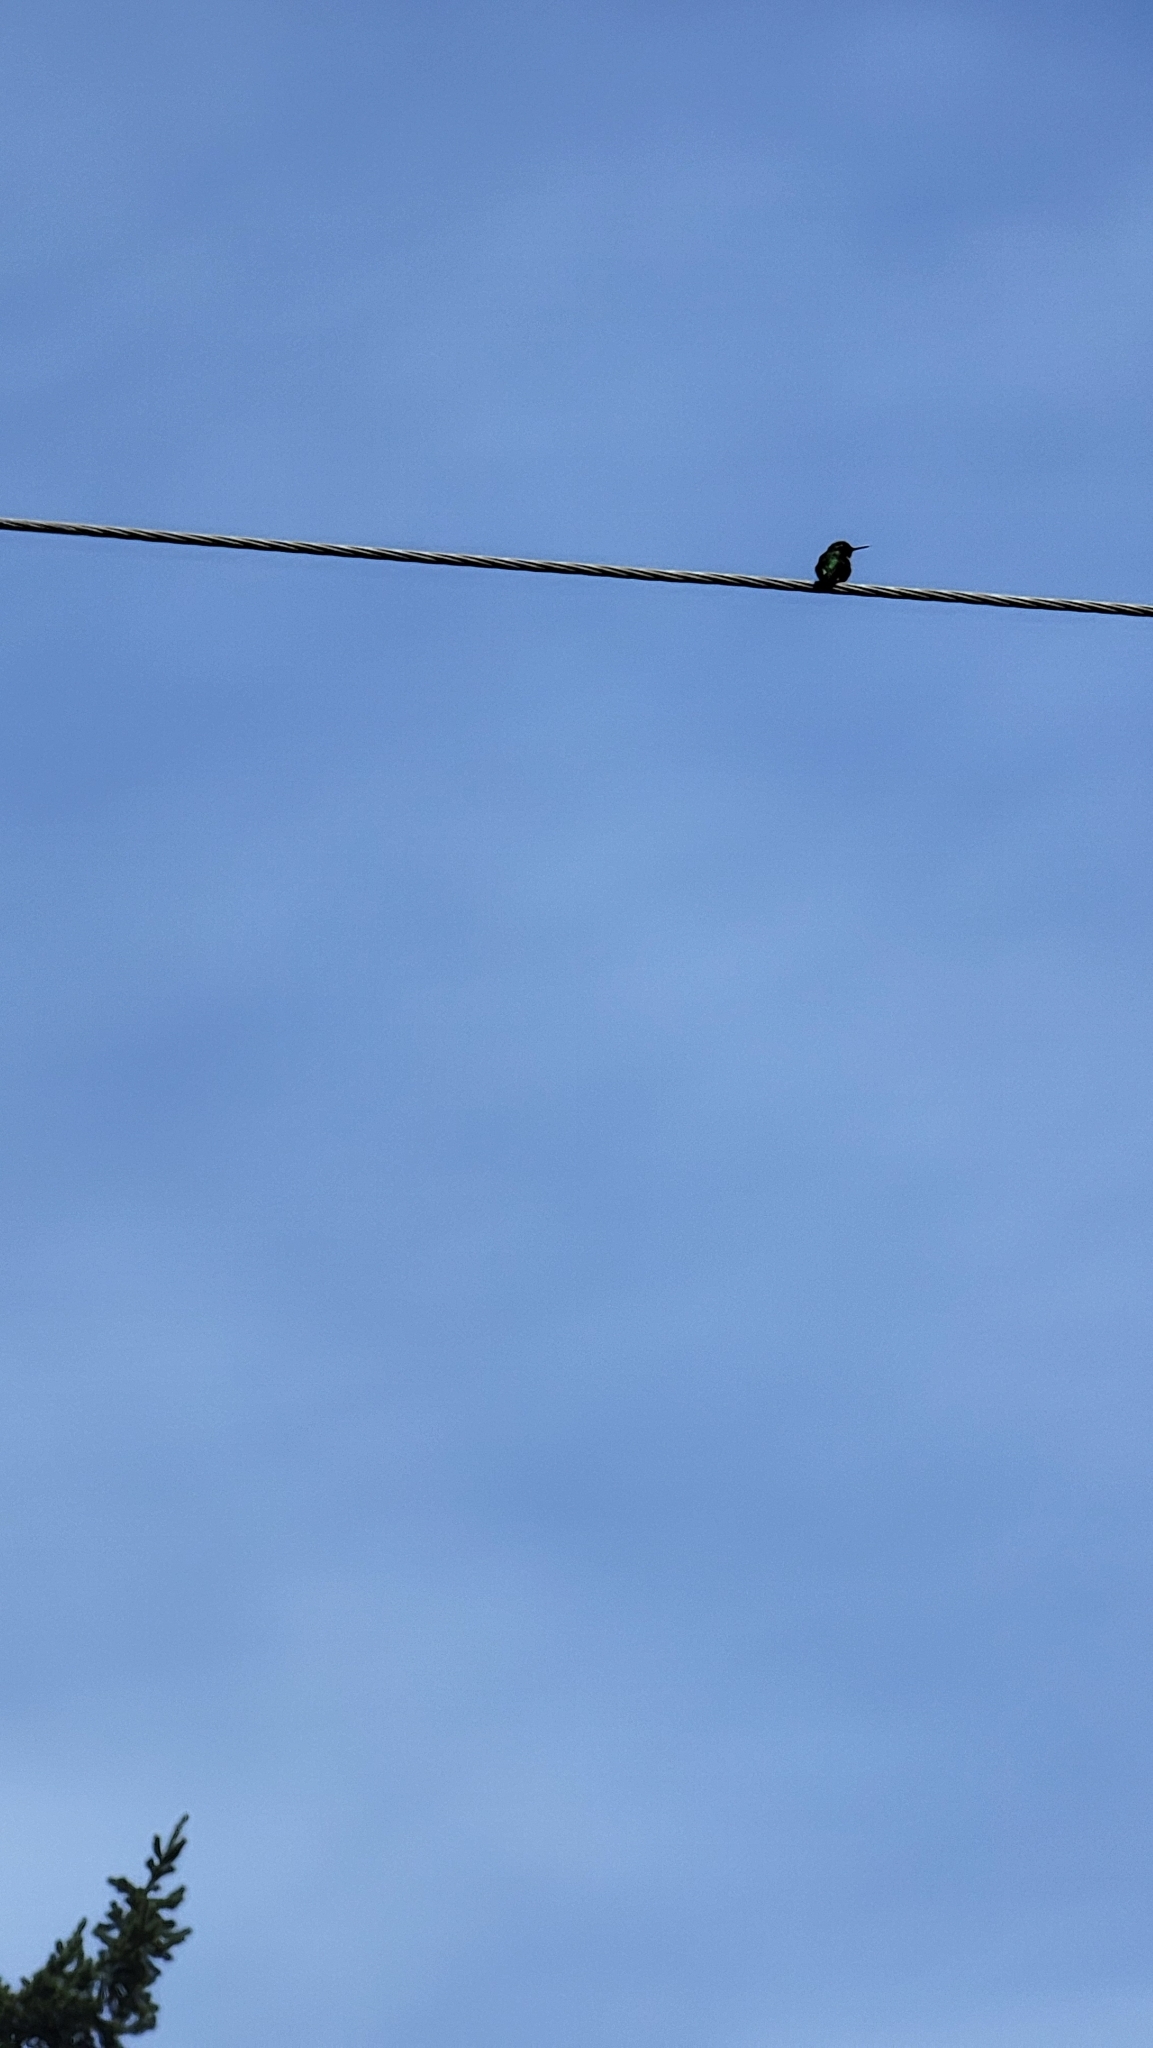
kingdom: Animalia
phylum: Chordata
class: Aves
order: Apodiformes
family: Trochilidae
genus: Calypte
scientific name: Calypte anna
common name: Anna's hummingbird
